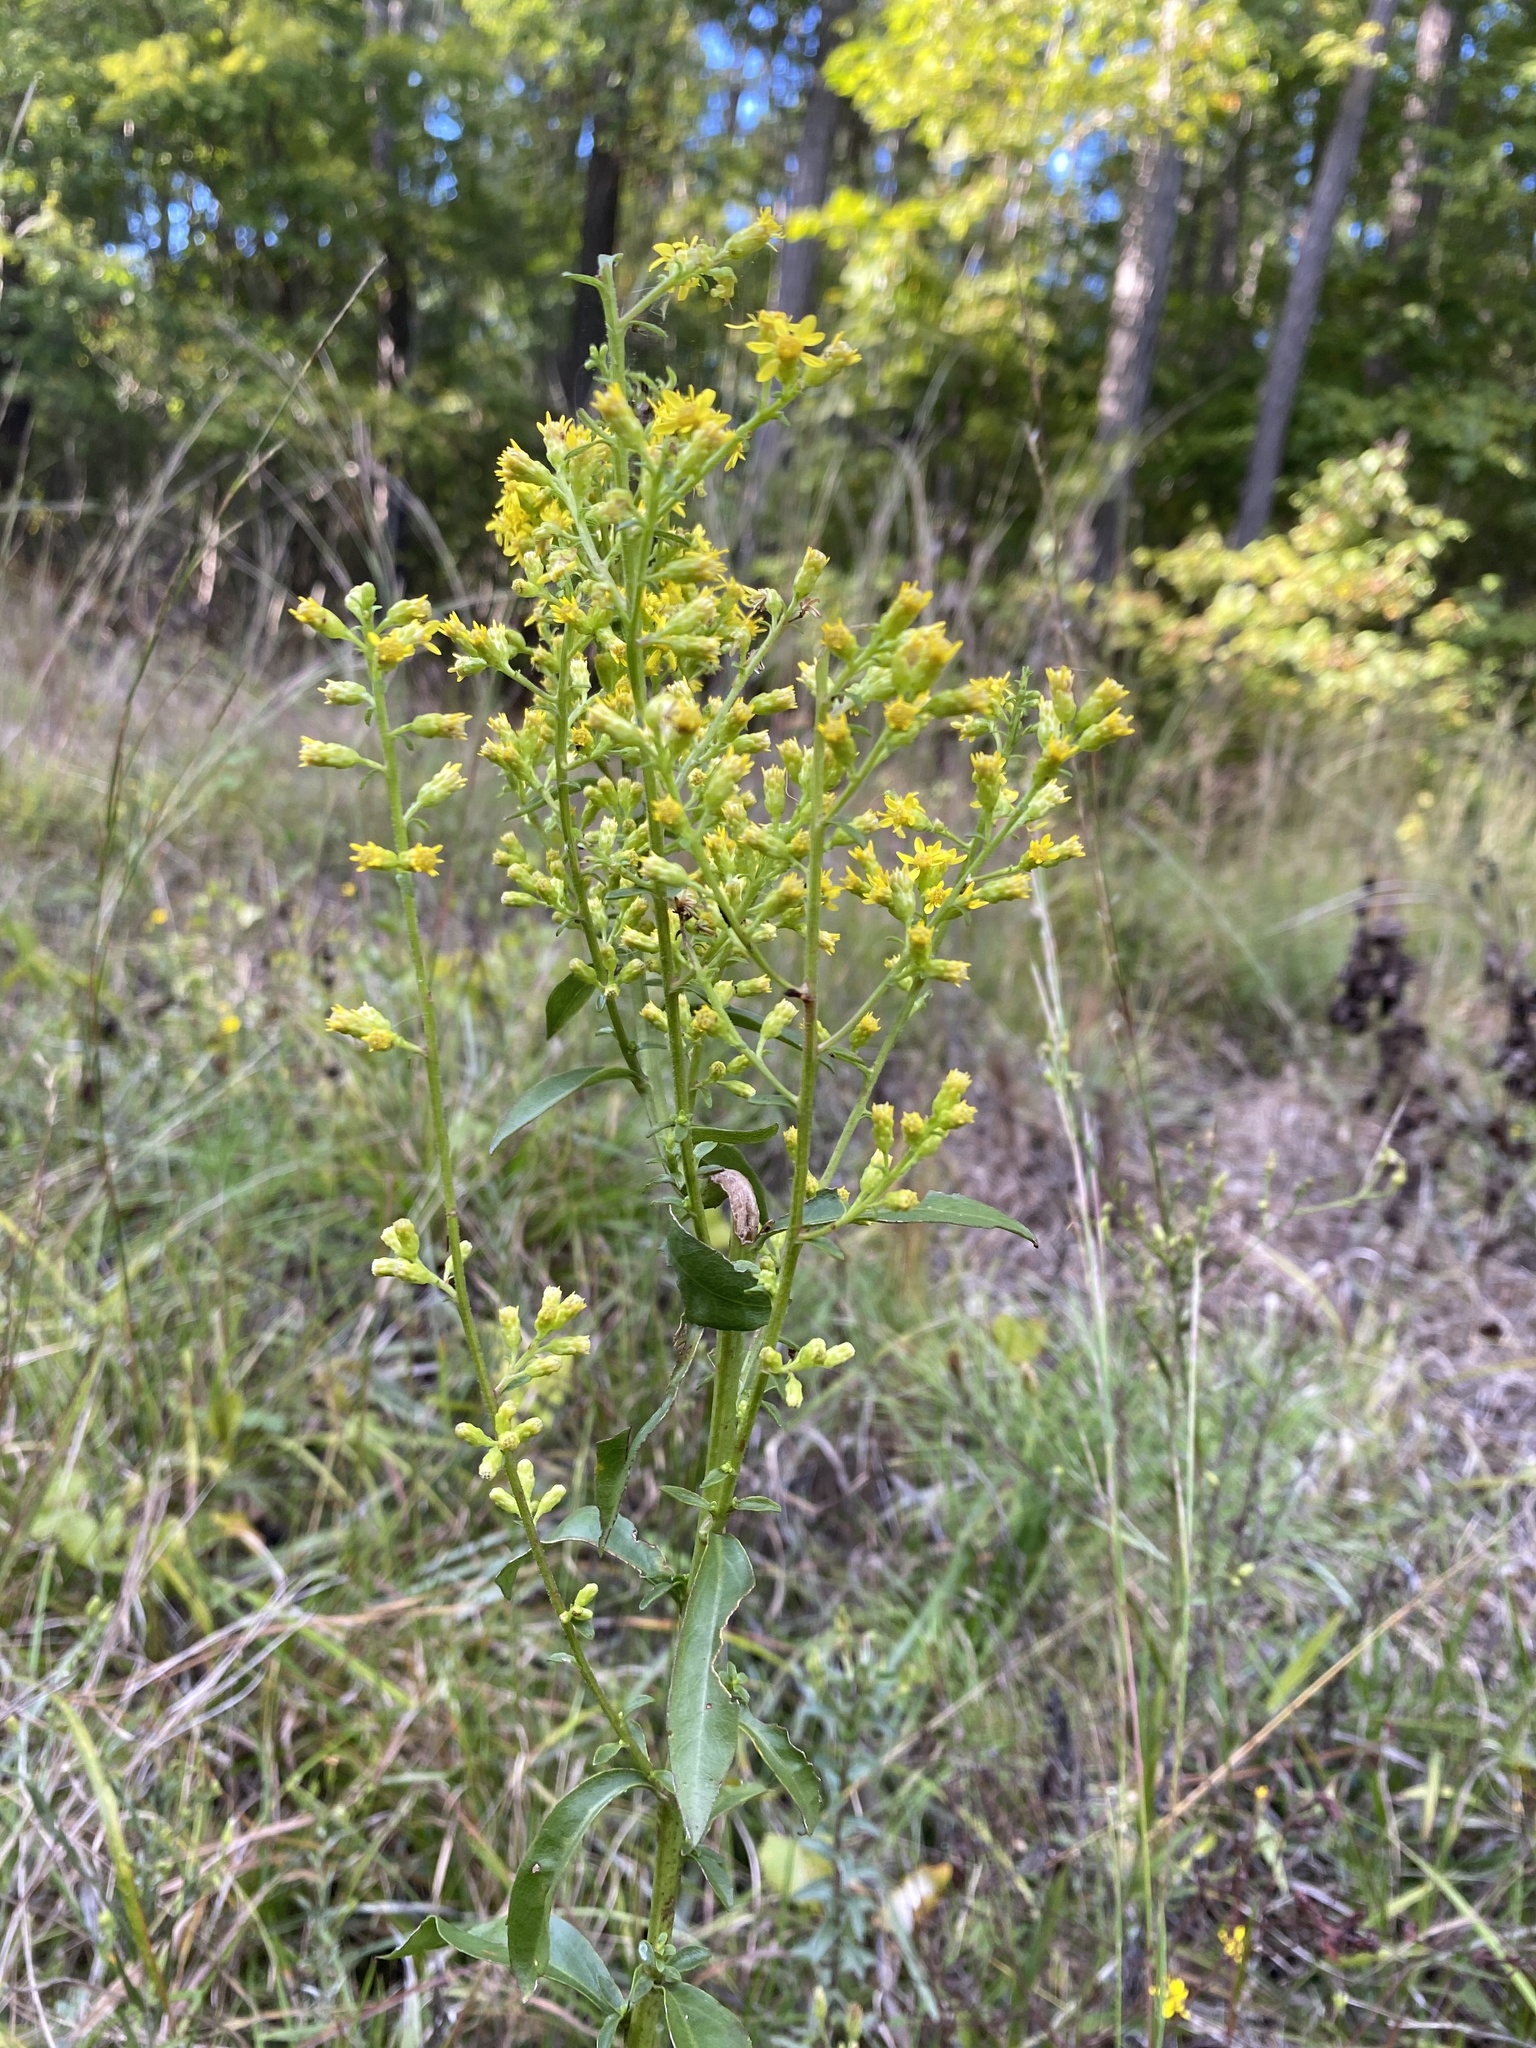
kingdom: Plantae
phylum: Tracheophyta
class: Magnoliopsida
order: Asterales
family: Asteraceae
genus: Solidago
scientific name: Solidago speciosa
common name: Showy goldenrod
